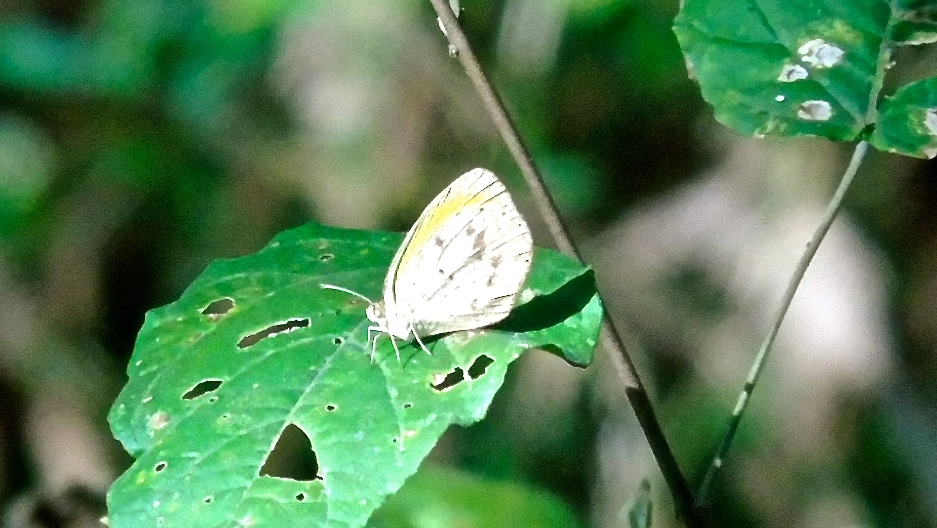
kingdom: Animalia
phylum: Arthropoda
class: Insecta
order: Lepidoptera
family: Pieridae
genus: Eurema
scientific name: Eurema daira
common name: Barred sulphur
